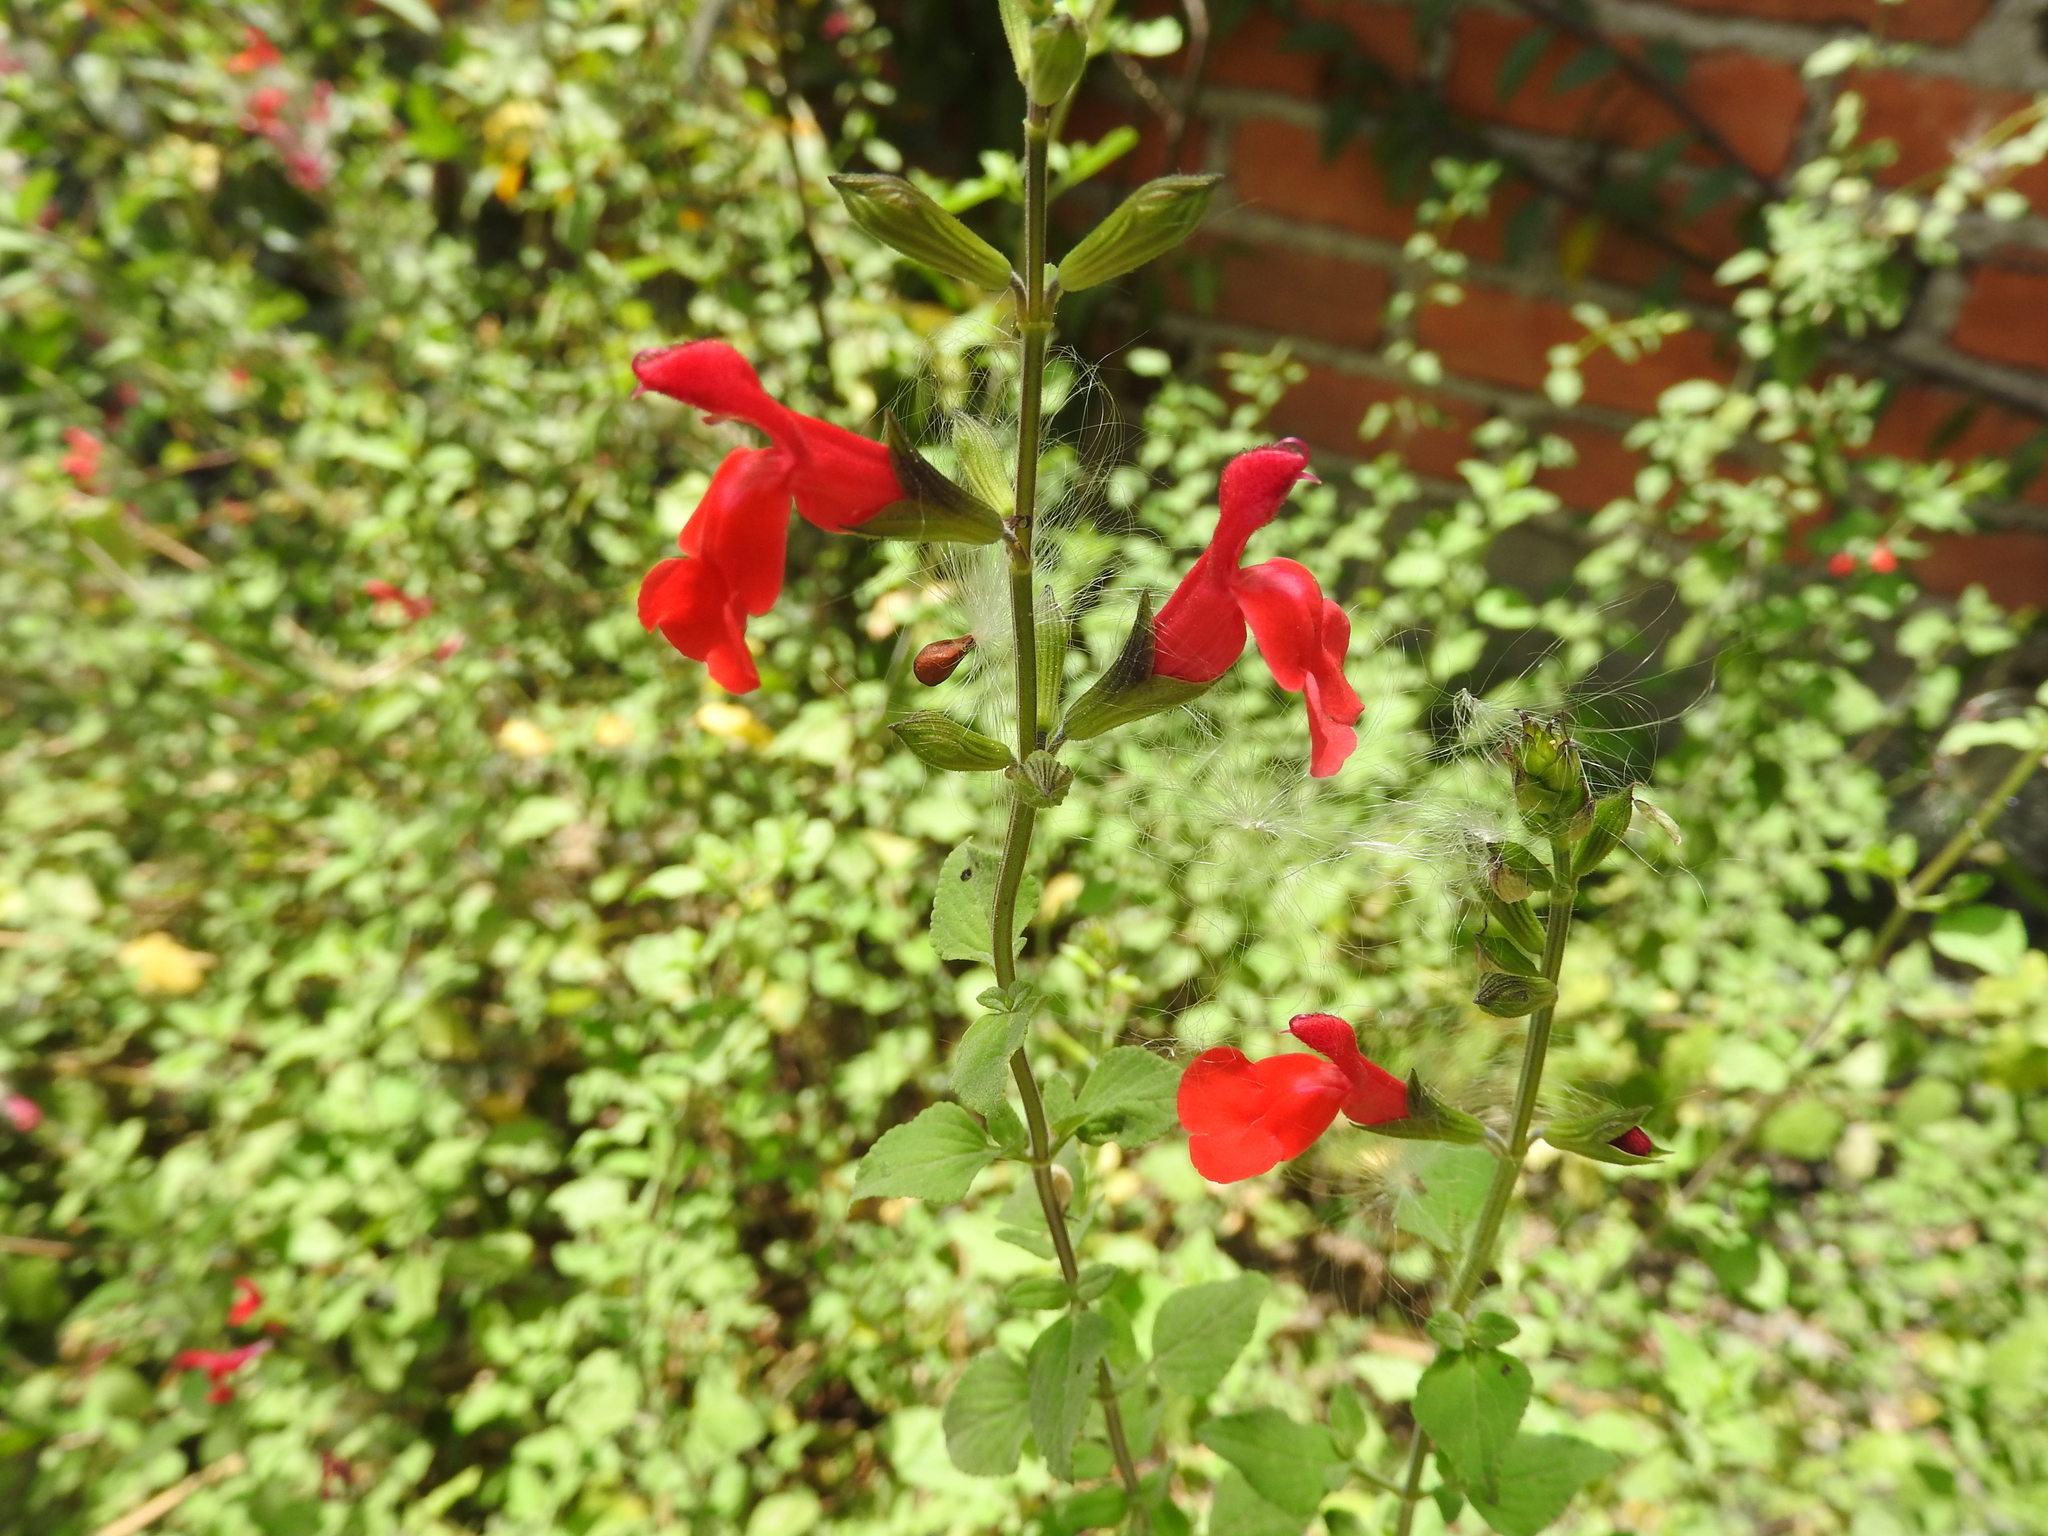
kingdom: Plantae
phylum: Tracheophyta
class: Magnoliopsida
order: Lamiales
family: Lamiaceae
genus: Salvia
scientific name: Salvia microphylla
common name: Baby sage
